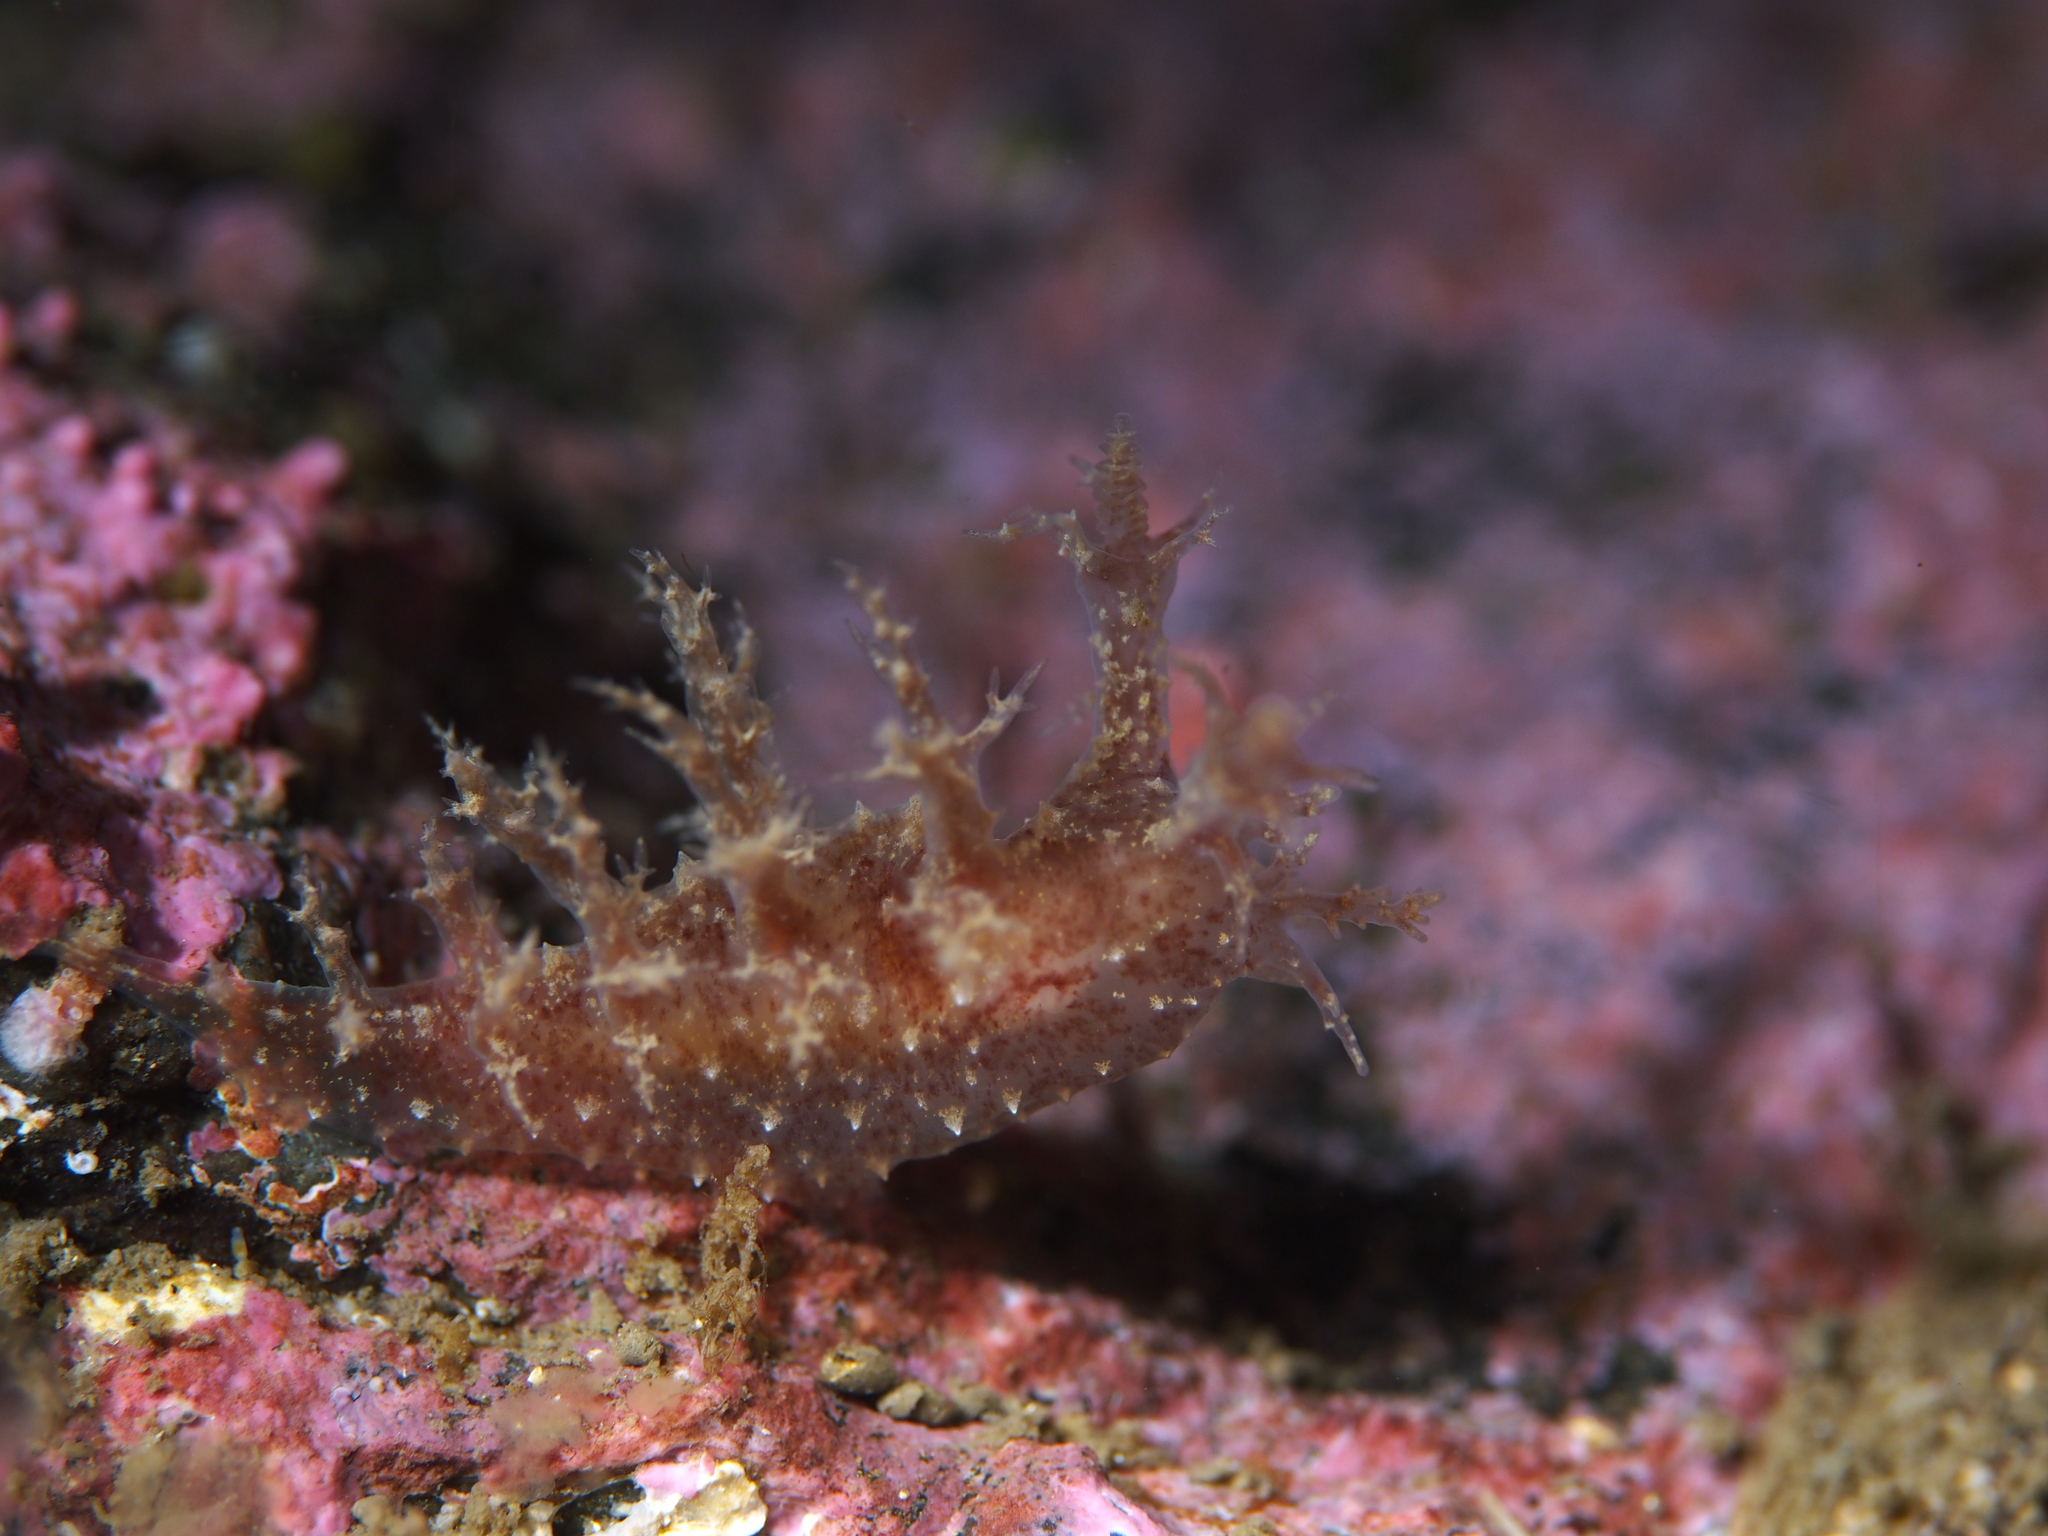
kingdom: Animalia
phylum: Mollusca
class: Gastropoda
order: Nudibranchia
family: Dendronotidae
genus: Dendronotus
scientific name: Dendronotus frondosus
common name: Bushy-backed nudibranch
